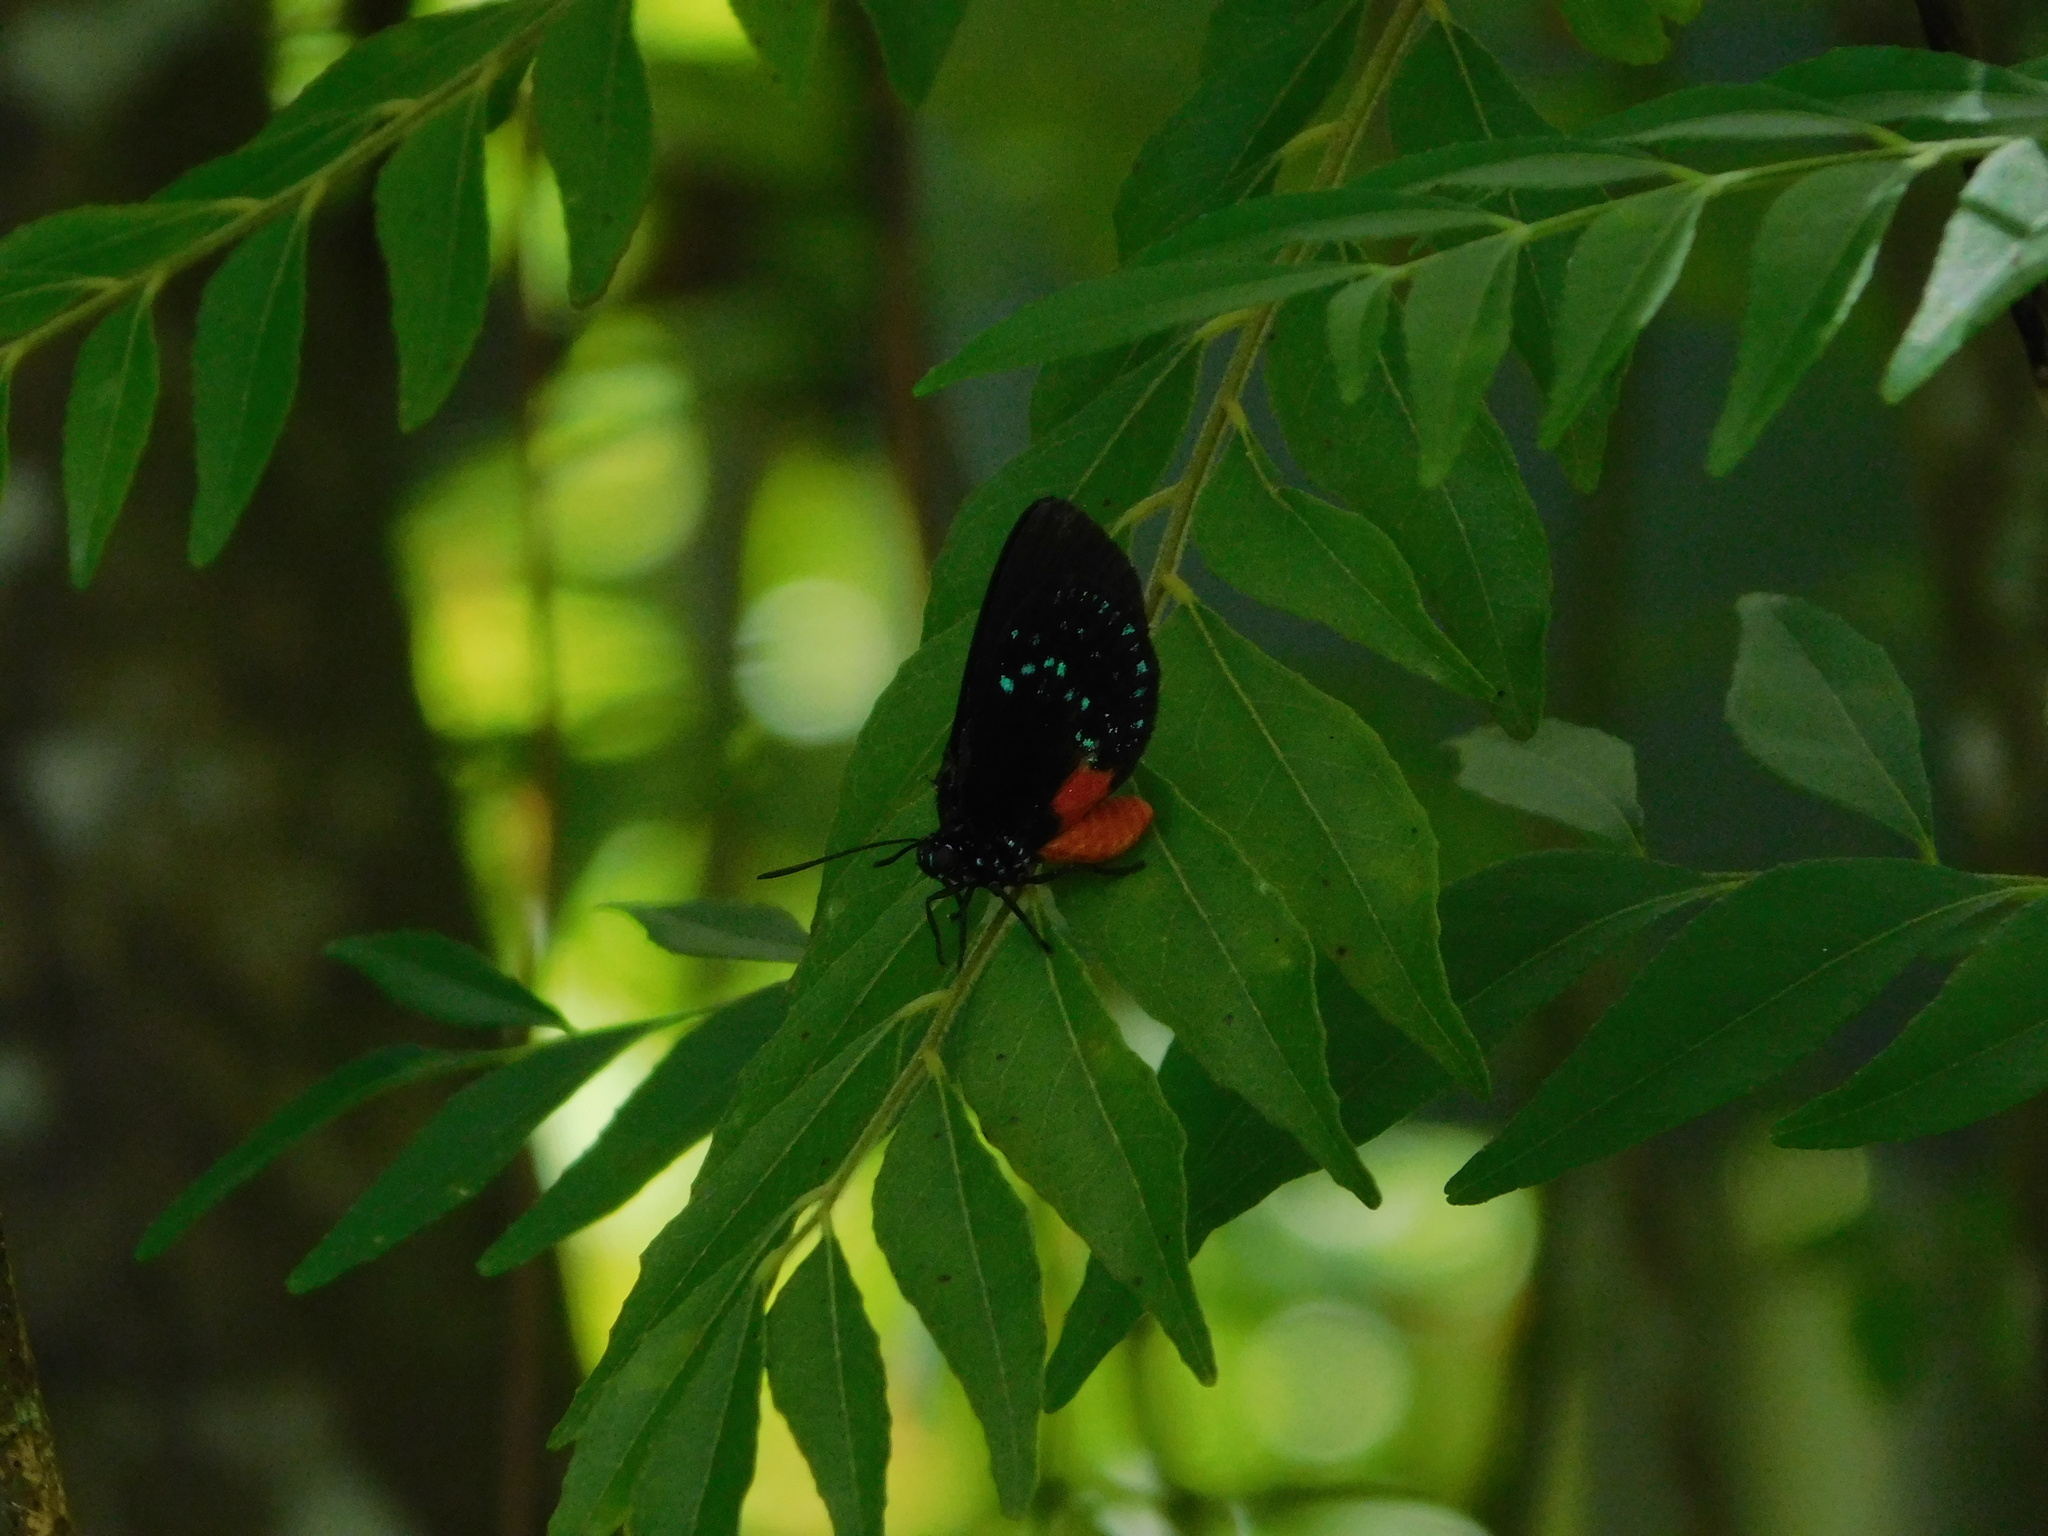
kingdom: Animalia
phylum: Arthropoda
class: Insecta
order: Lepidoptera
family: Lycaenidae
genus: Eumaeus
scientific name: Eumaeus atala
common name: Atala
